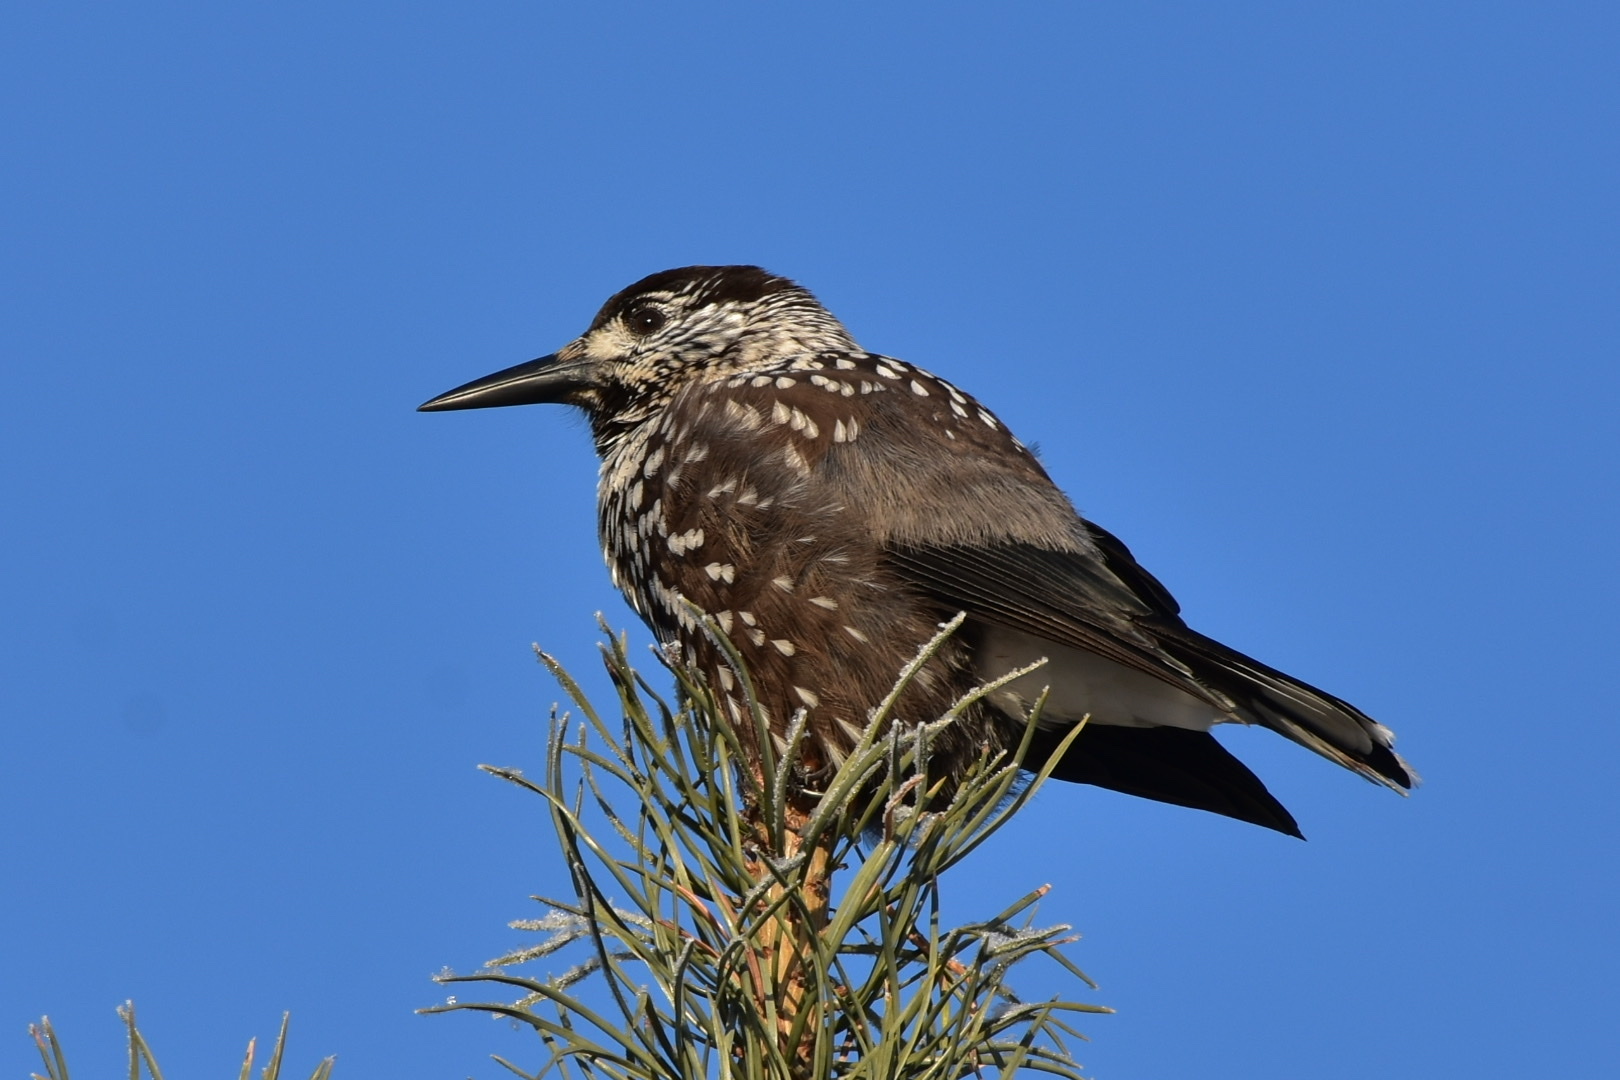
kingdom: Animalia
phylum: Chordata
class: Aves
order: Passeriformes
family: Corvidae
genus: Nucifraga
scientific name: Nucifraga caryocatactes
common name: Spotted nutcracker
